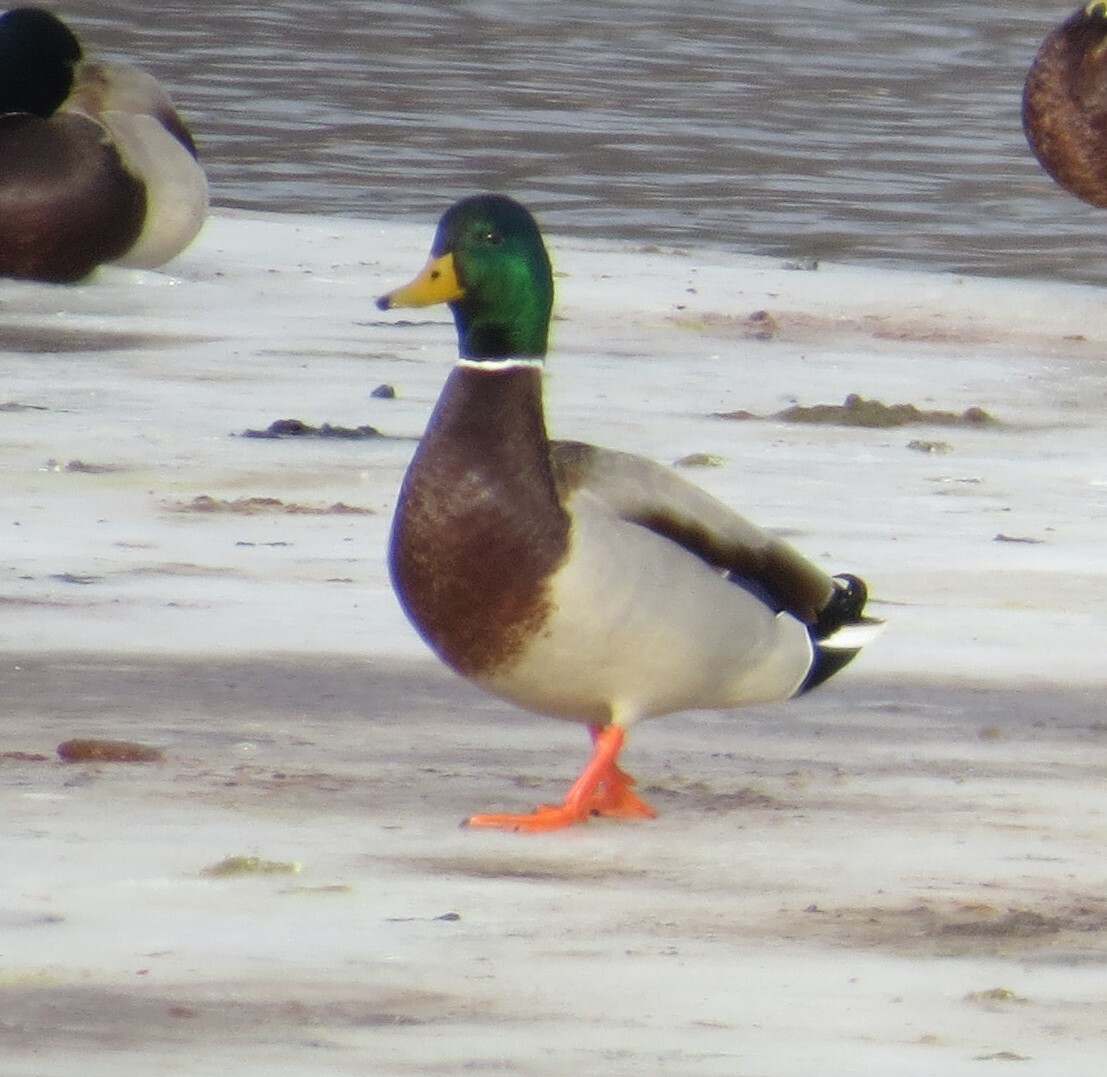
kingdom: Animalia
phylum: Chordata
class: Aves
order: Anseriformes
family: Anatidae
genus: Anas
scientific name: Anas platyrhynchos
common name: Mallard
